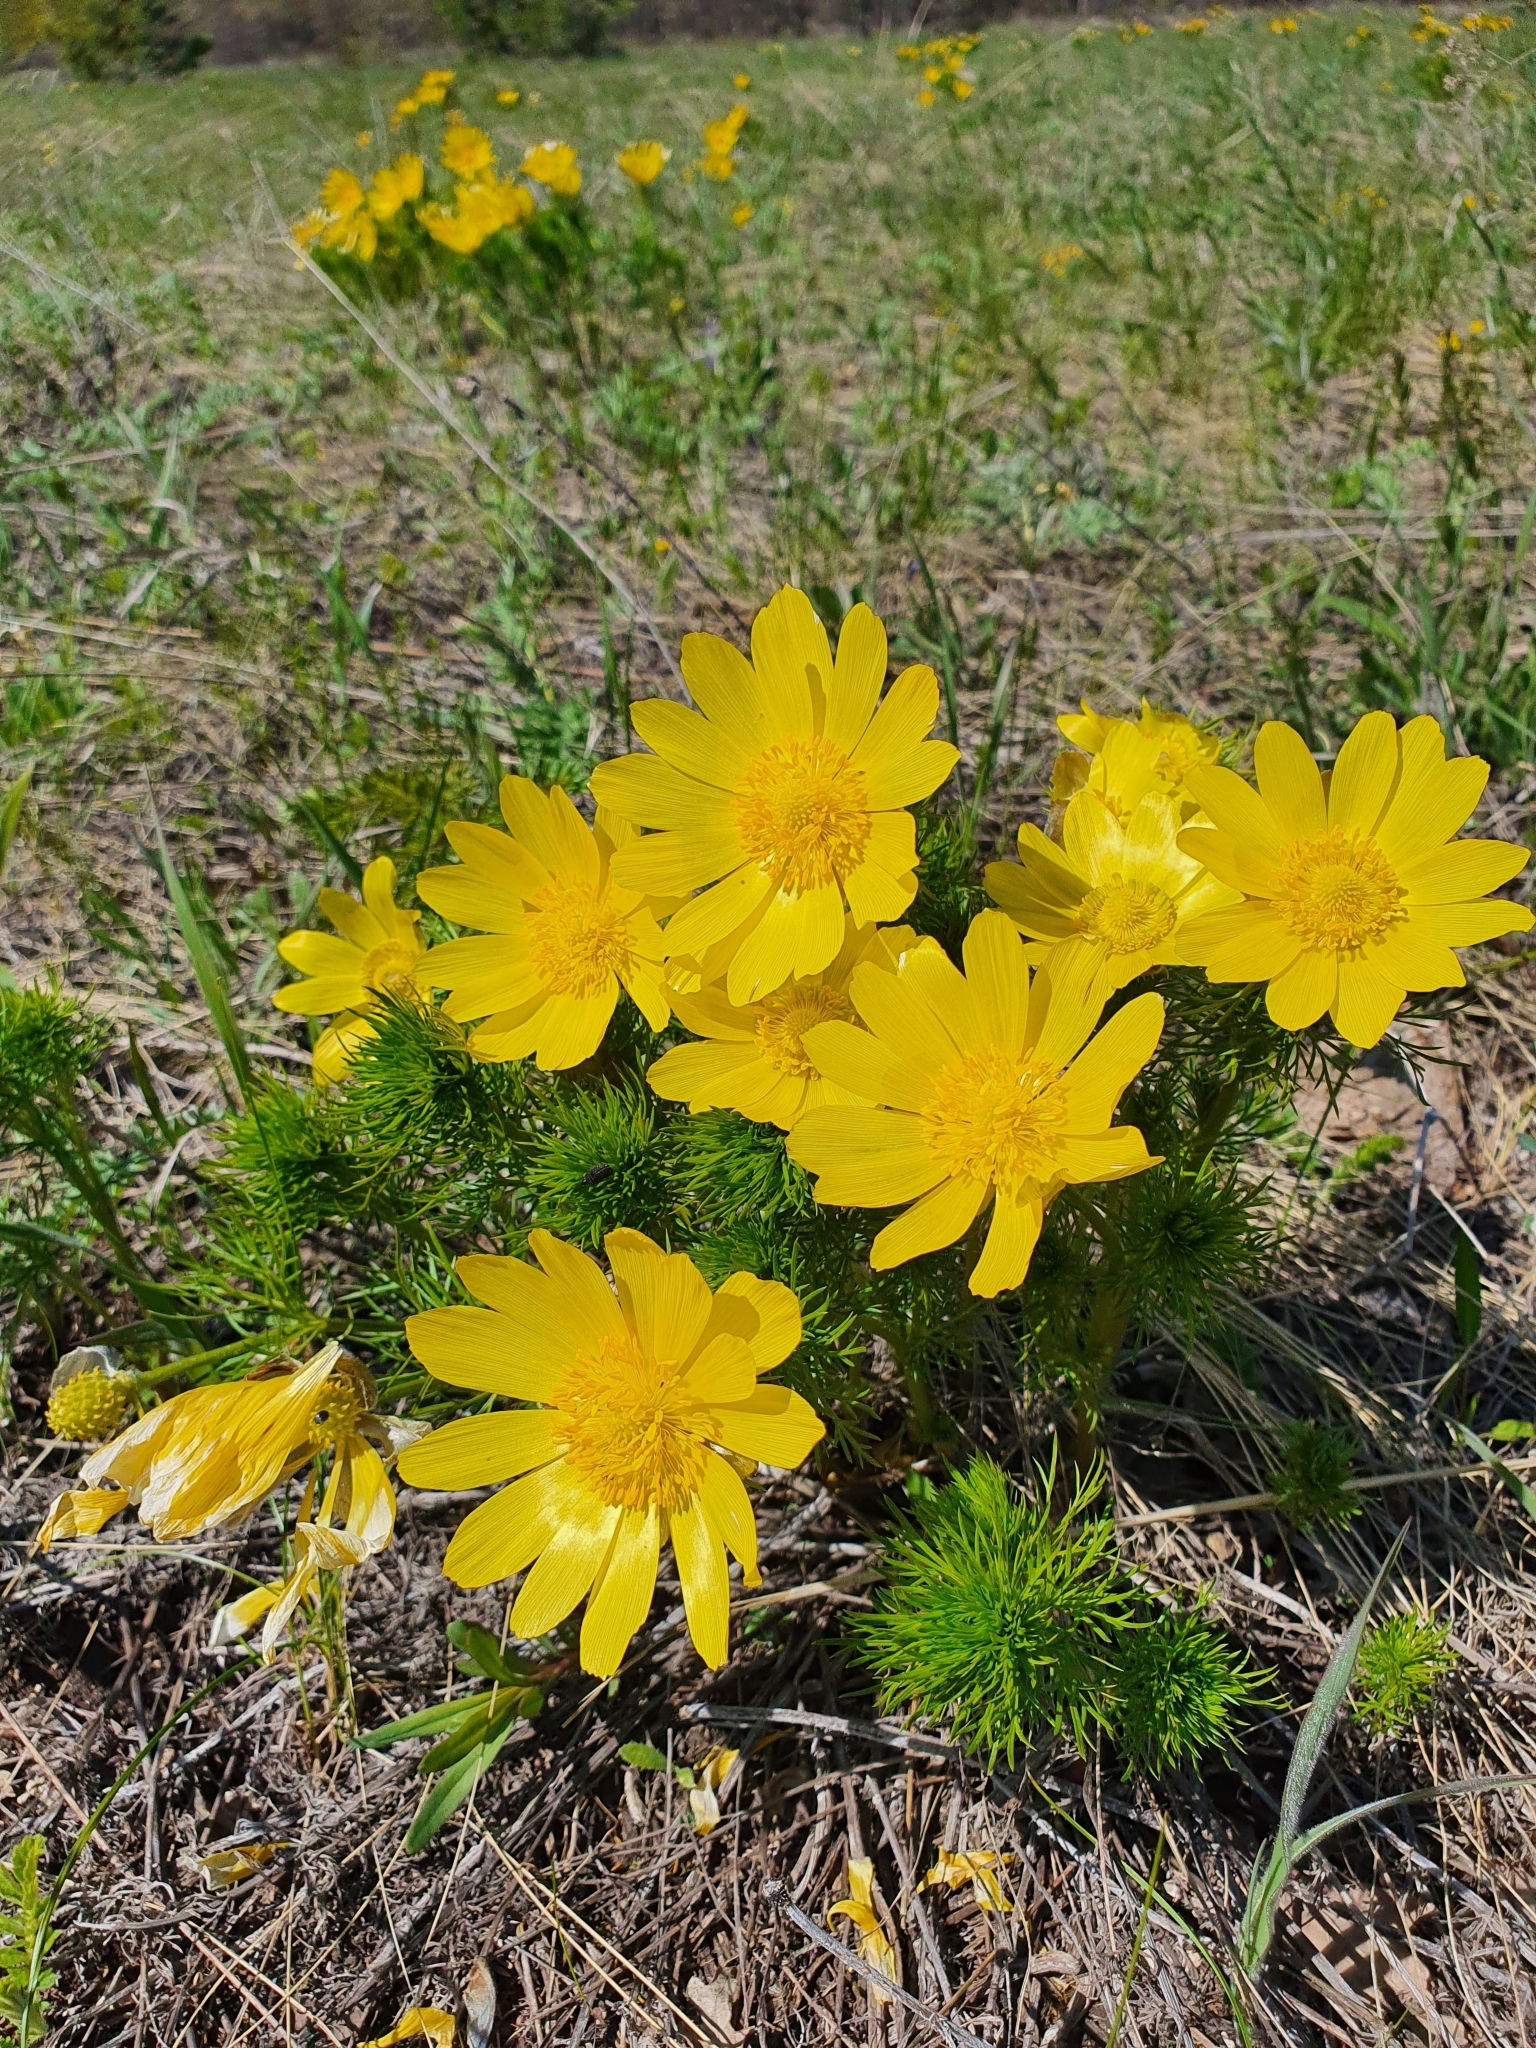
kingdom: Plantae
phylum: Tracheophyta
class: Magnoliopsida
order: Ranunculales
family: Ranunculaceae
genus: Adonis
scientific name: Adonis vernalis
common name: Yellow pheasants-eye
